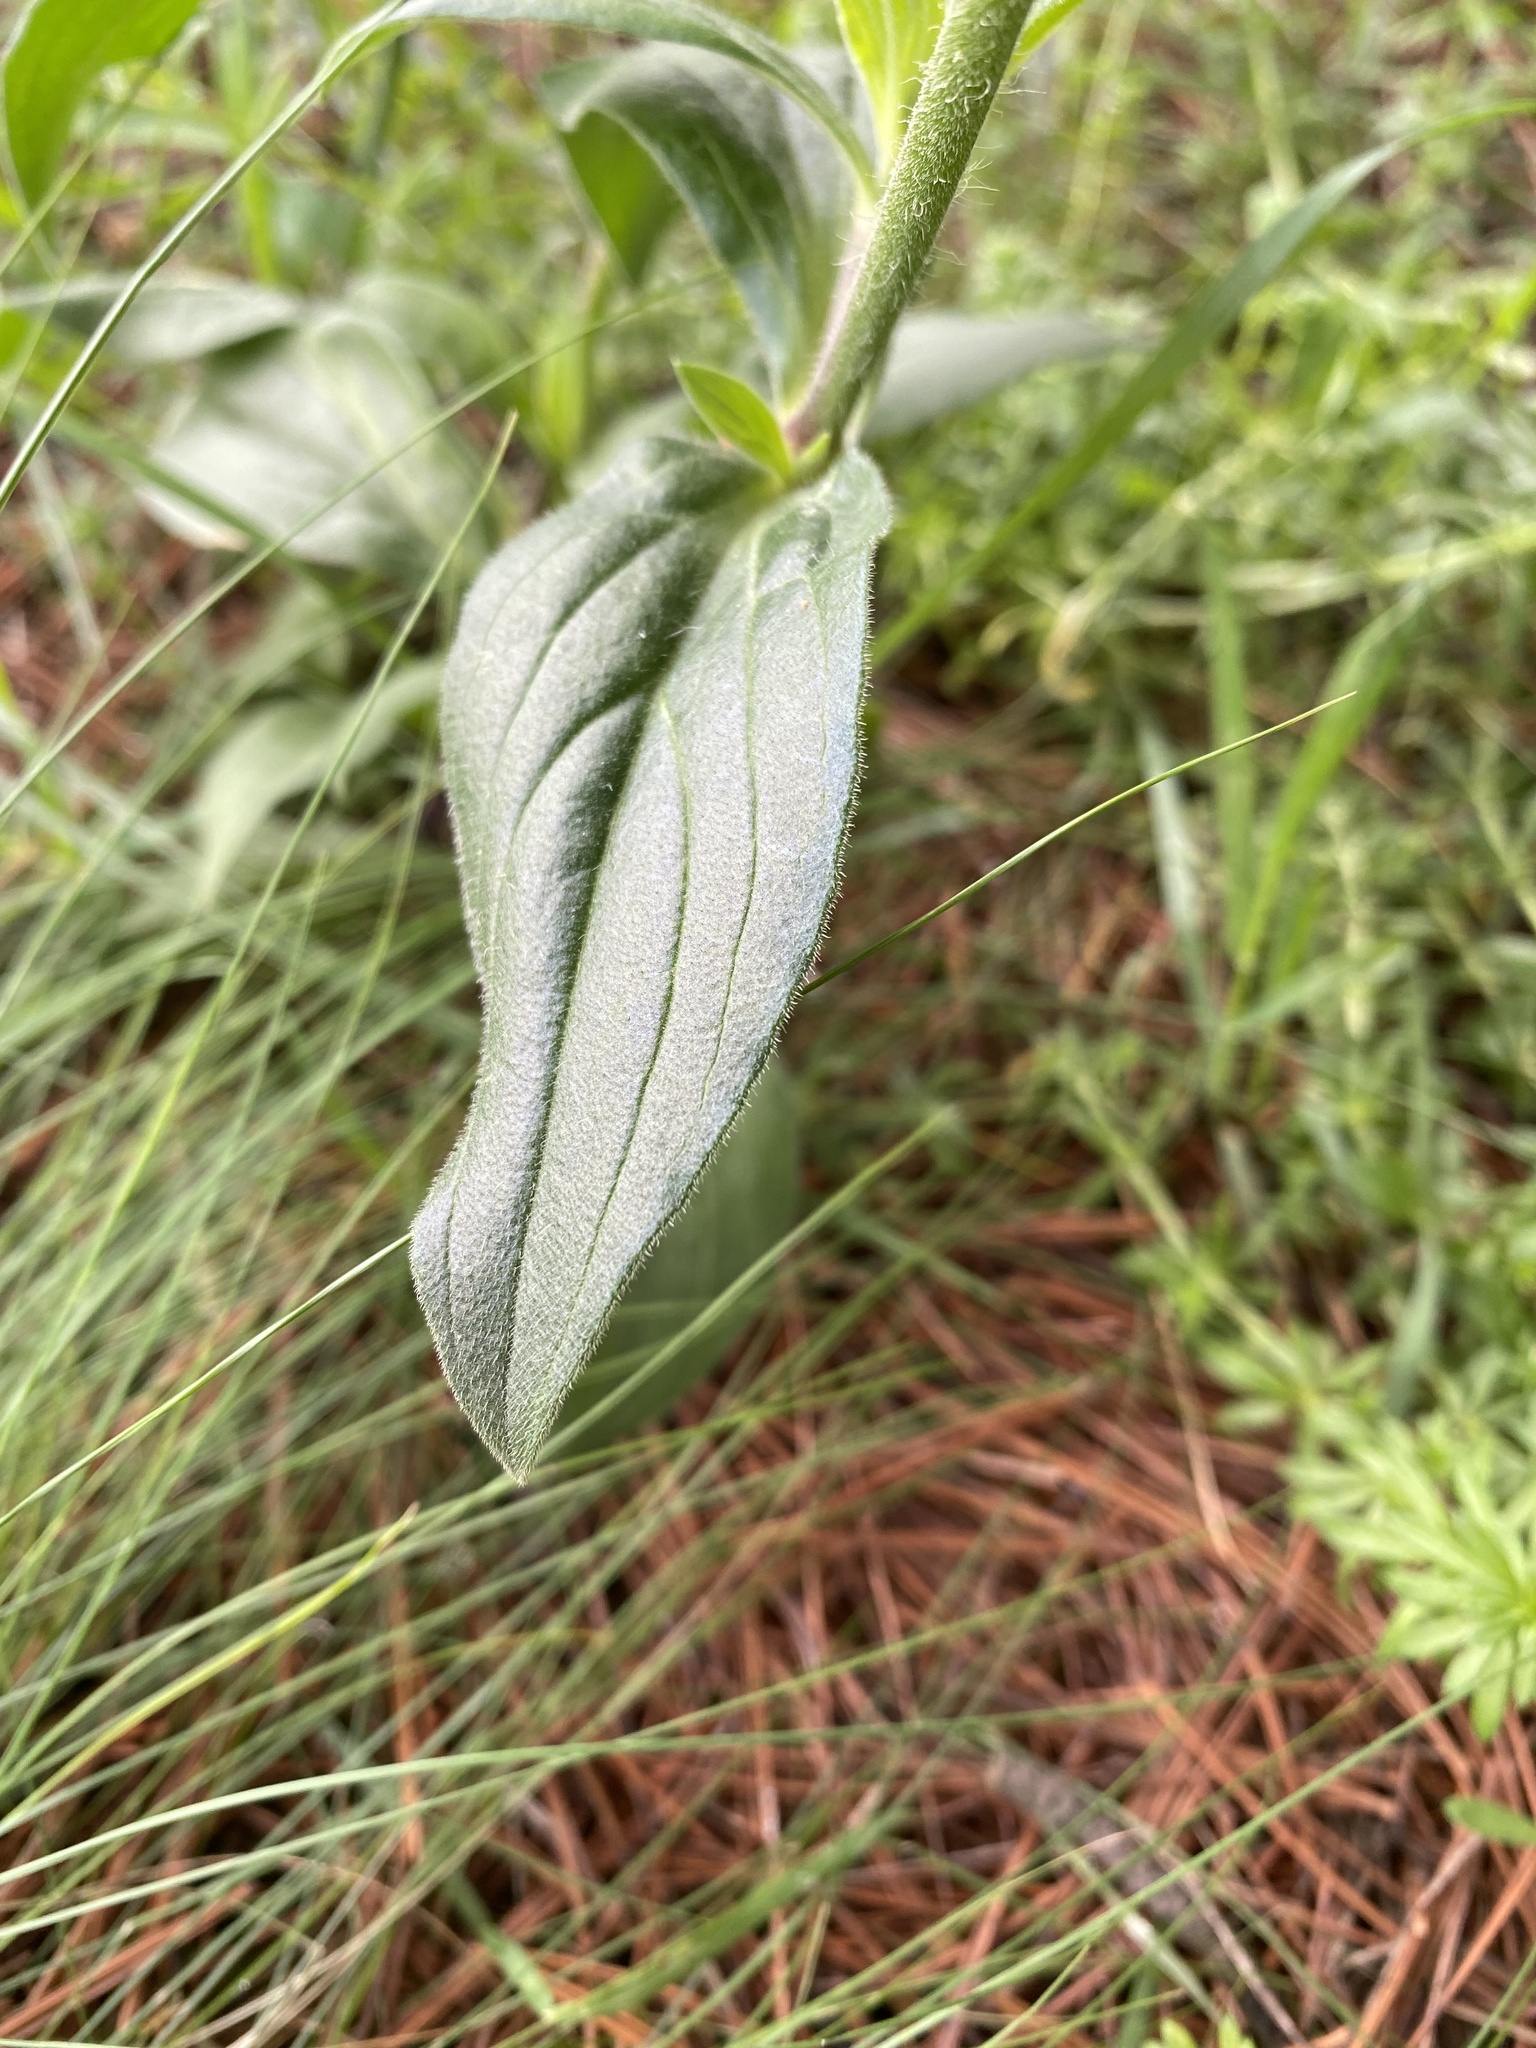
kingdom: Plantae
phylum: Tracheophyta
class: Magnoliopsida
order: Caryophyllales
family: Caryophyllaceae
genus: Silene
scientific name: Silene latifolia
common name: White campion
